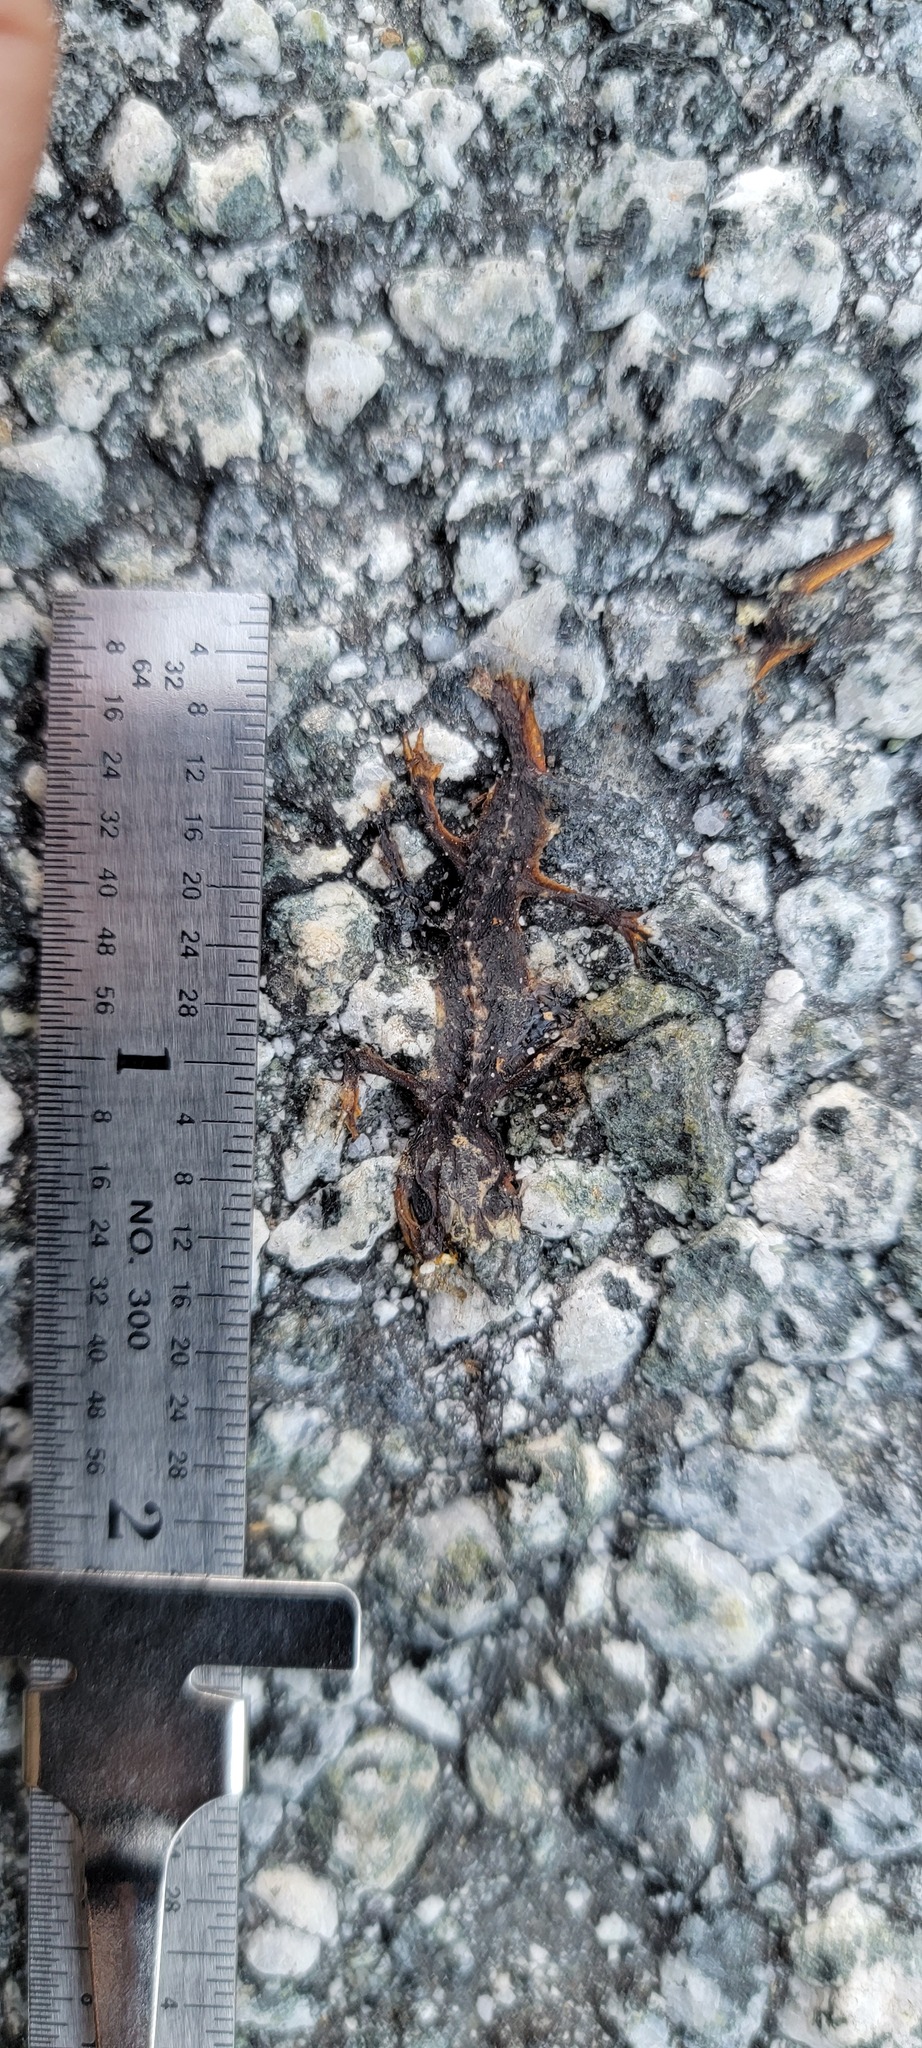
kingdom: Animalia
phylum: Chordata
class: Amphibia
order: Caudata
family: Salamandridae
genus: Taricha
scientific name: Taricha
